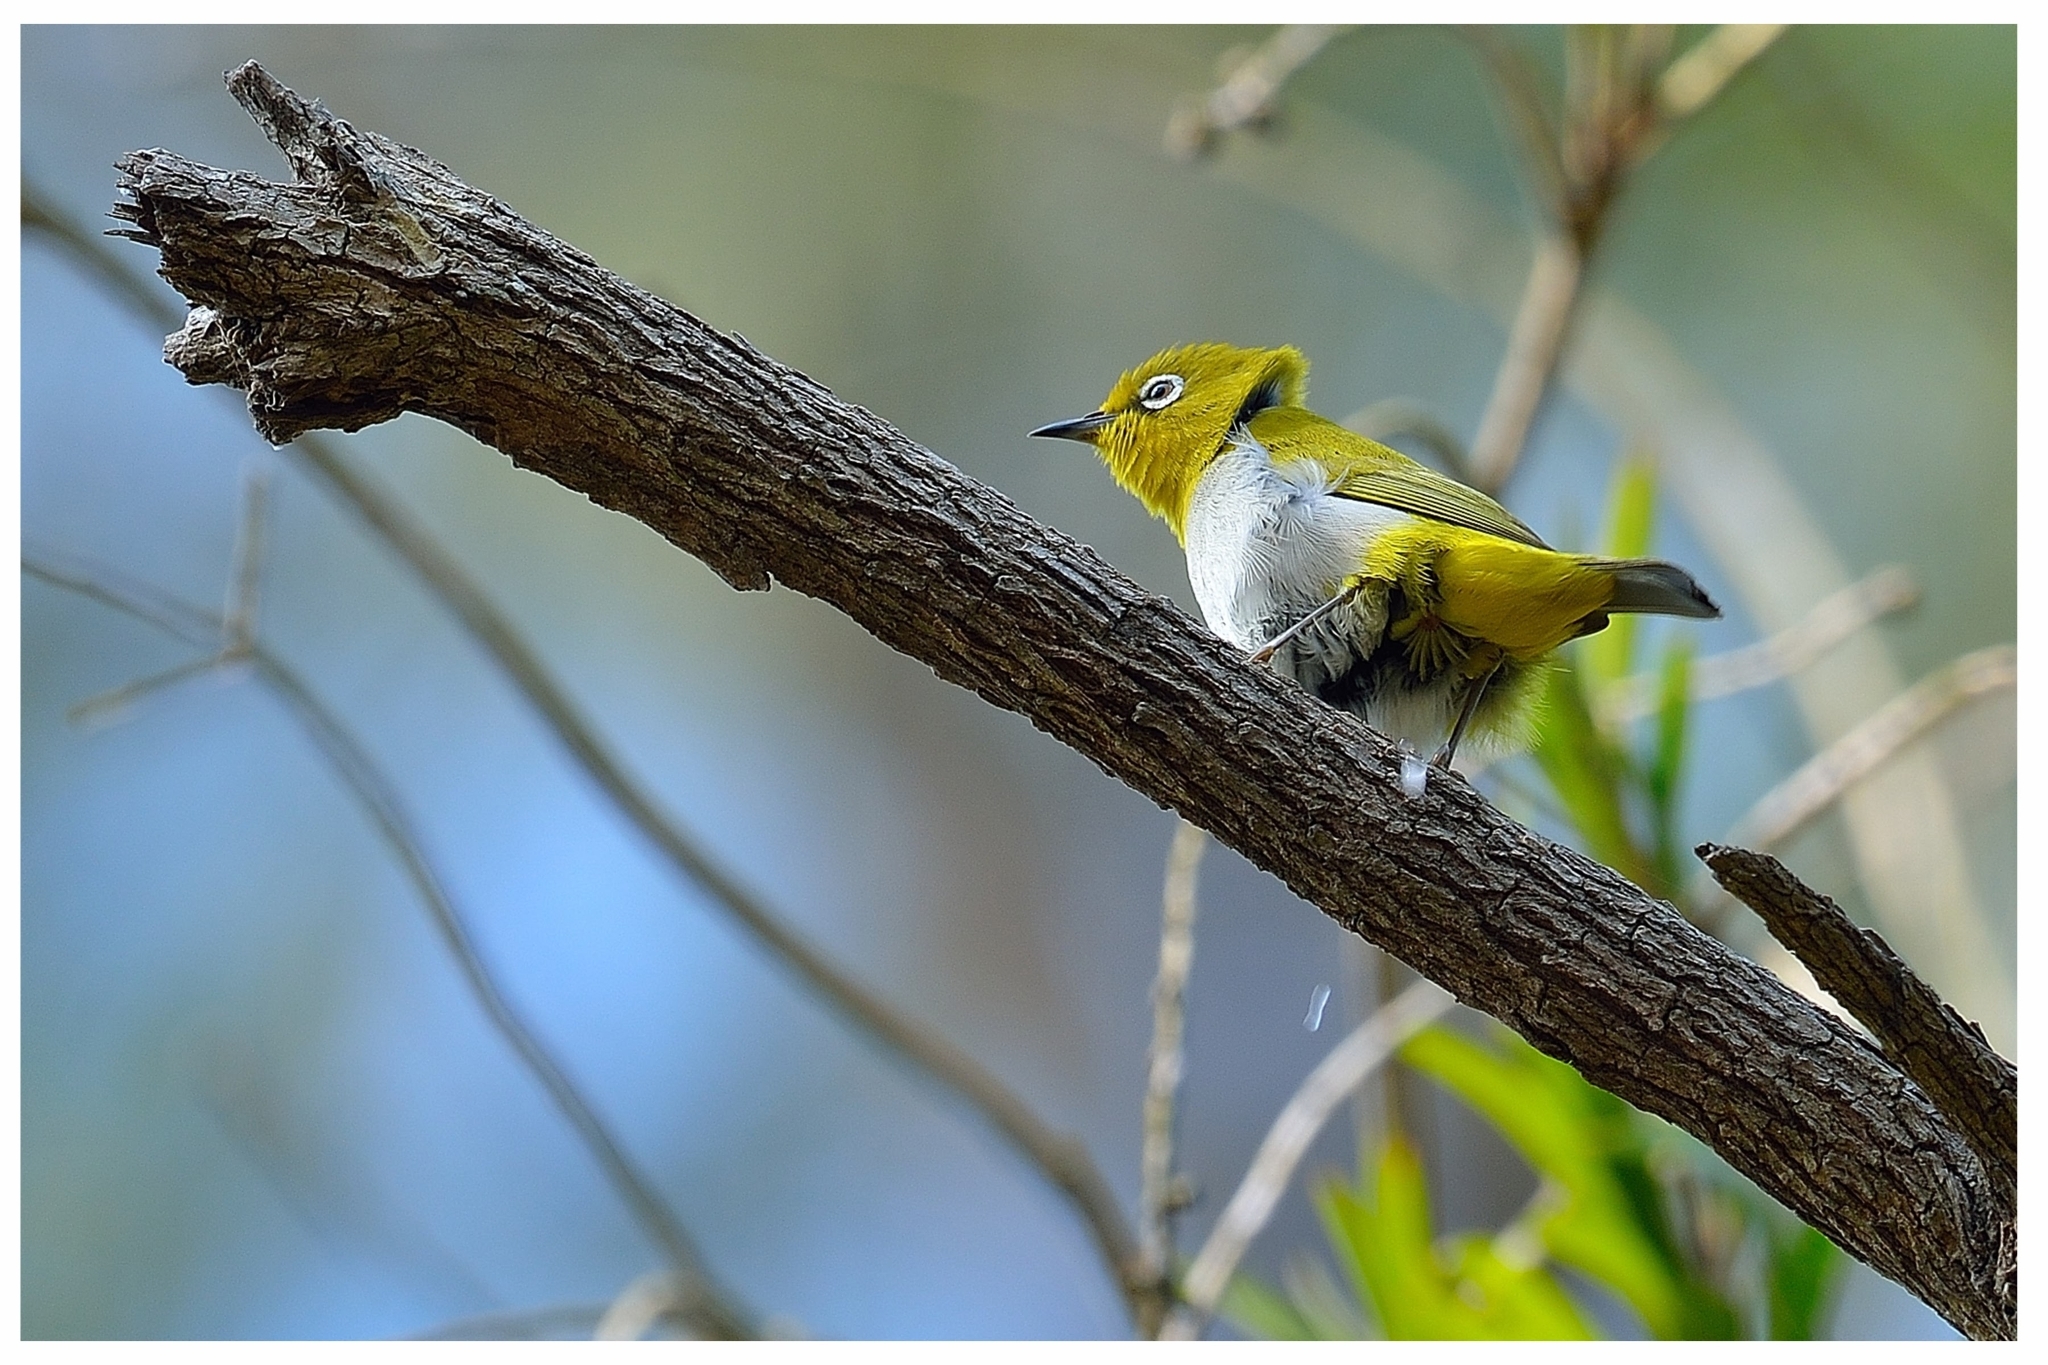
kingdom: Animalia
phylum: Chordata
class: Aves
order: Passeriformes
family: Zosteropidae
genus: Zosterops
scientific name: Zosterops palpebrosus
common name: Oriental white-eye
